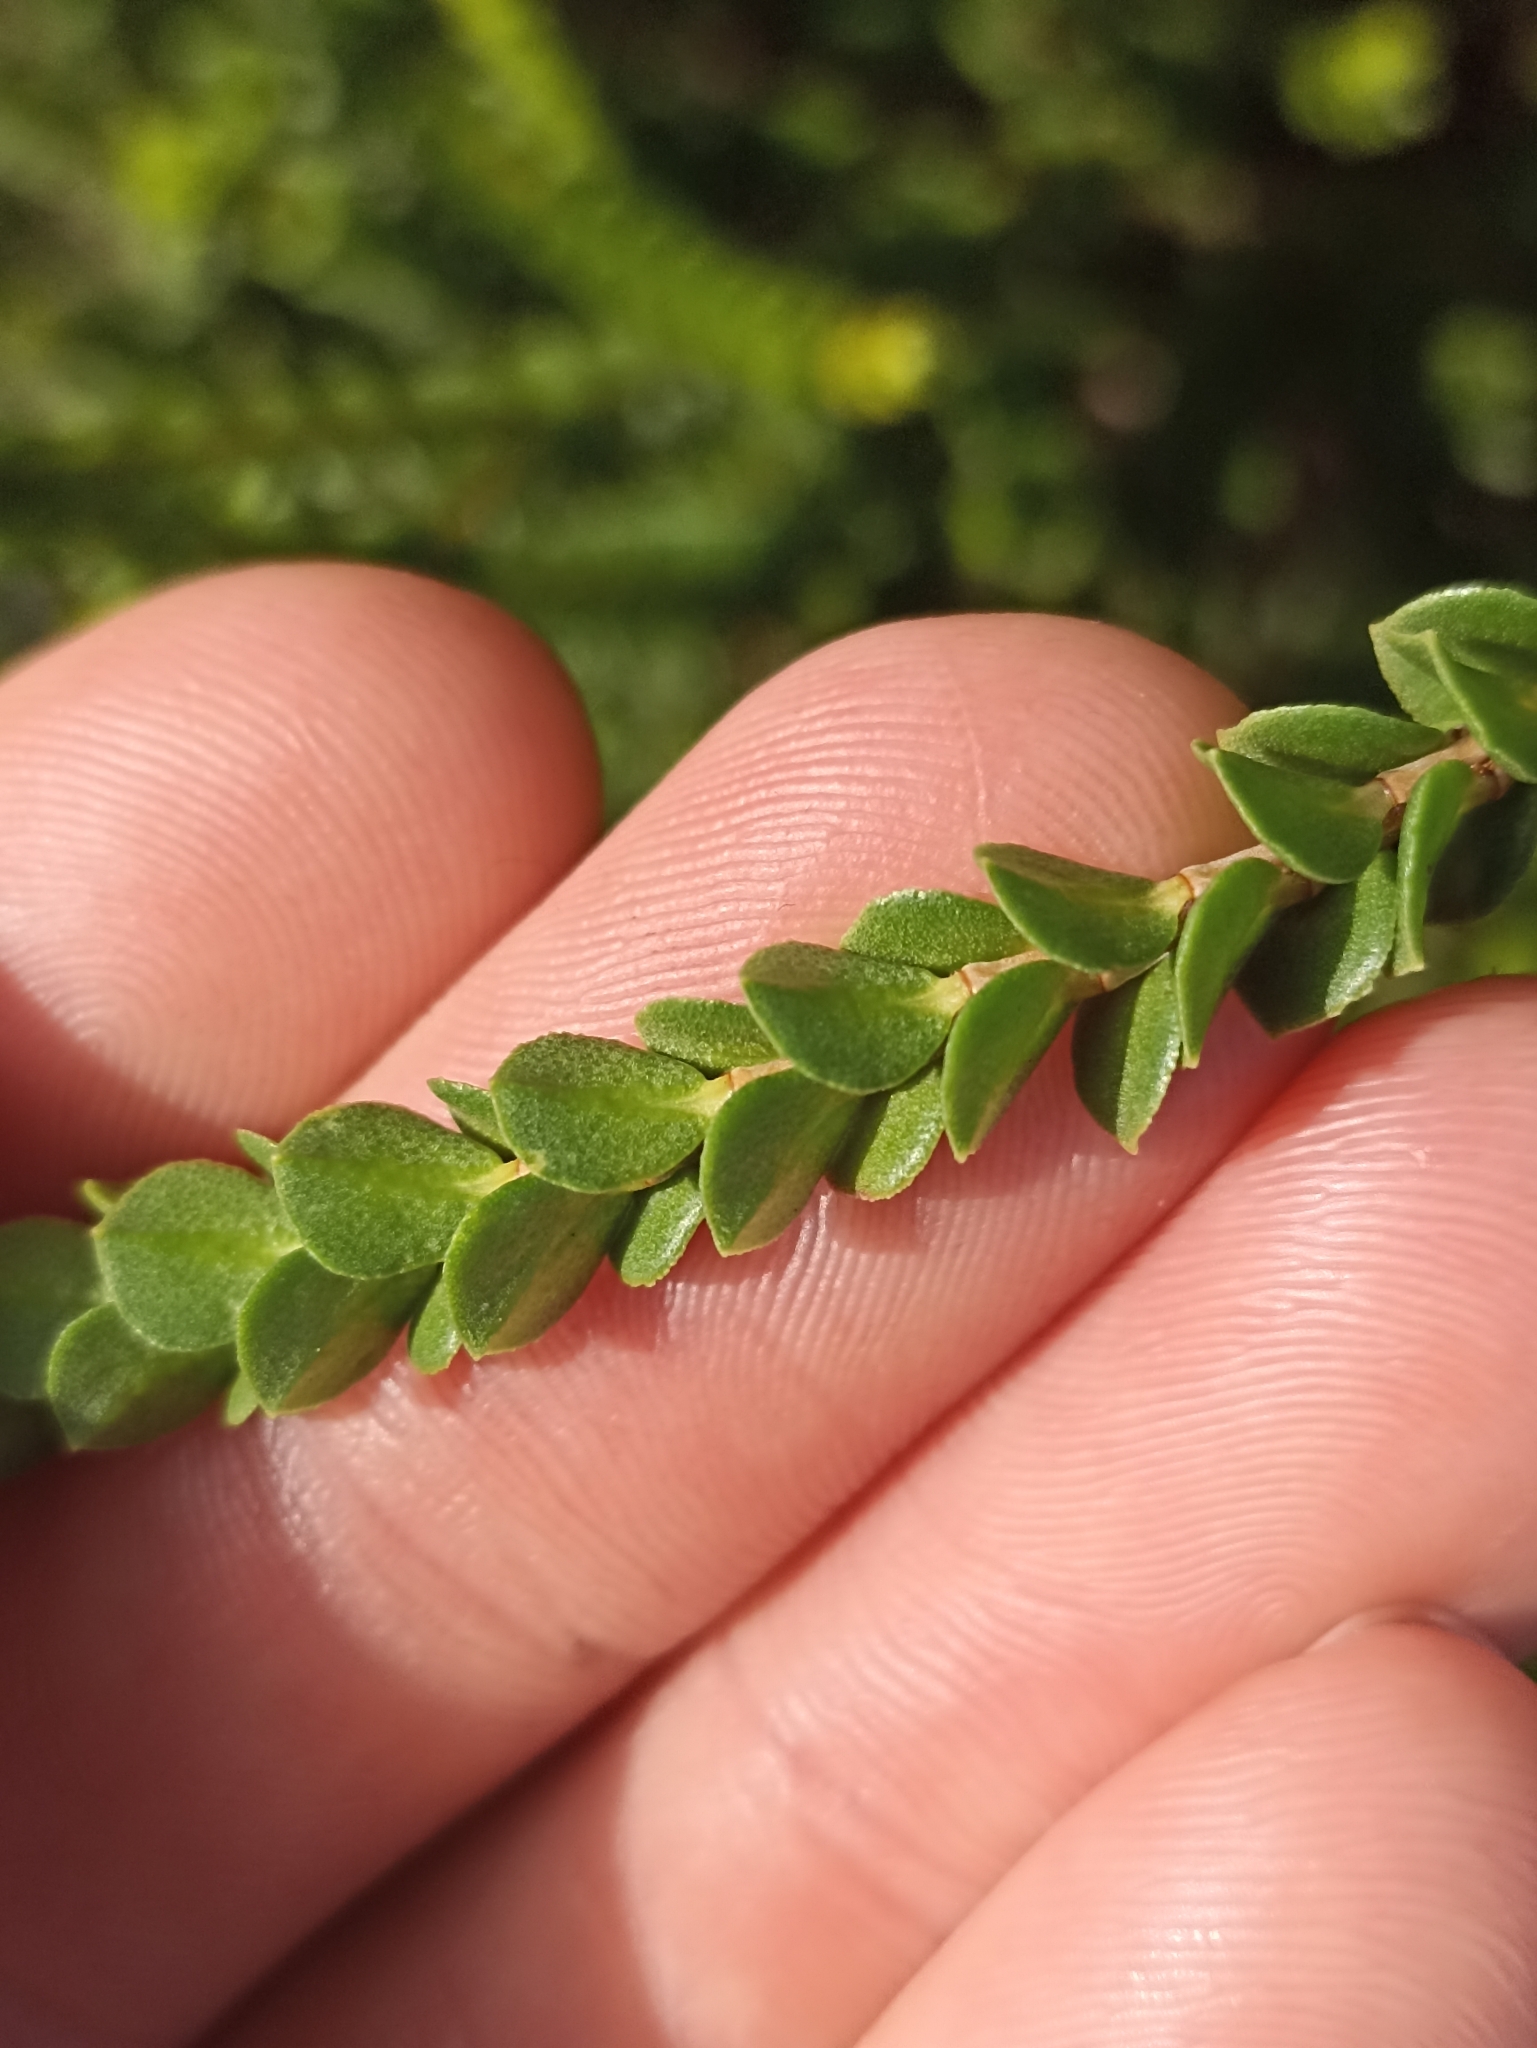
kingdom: Plantae
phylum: Tracheophyta
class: Magnoliopsida
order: Myrtales
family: Myrtaceae
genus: Baeckea
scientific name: Baeckea imbricata
